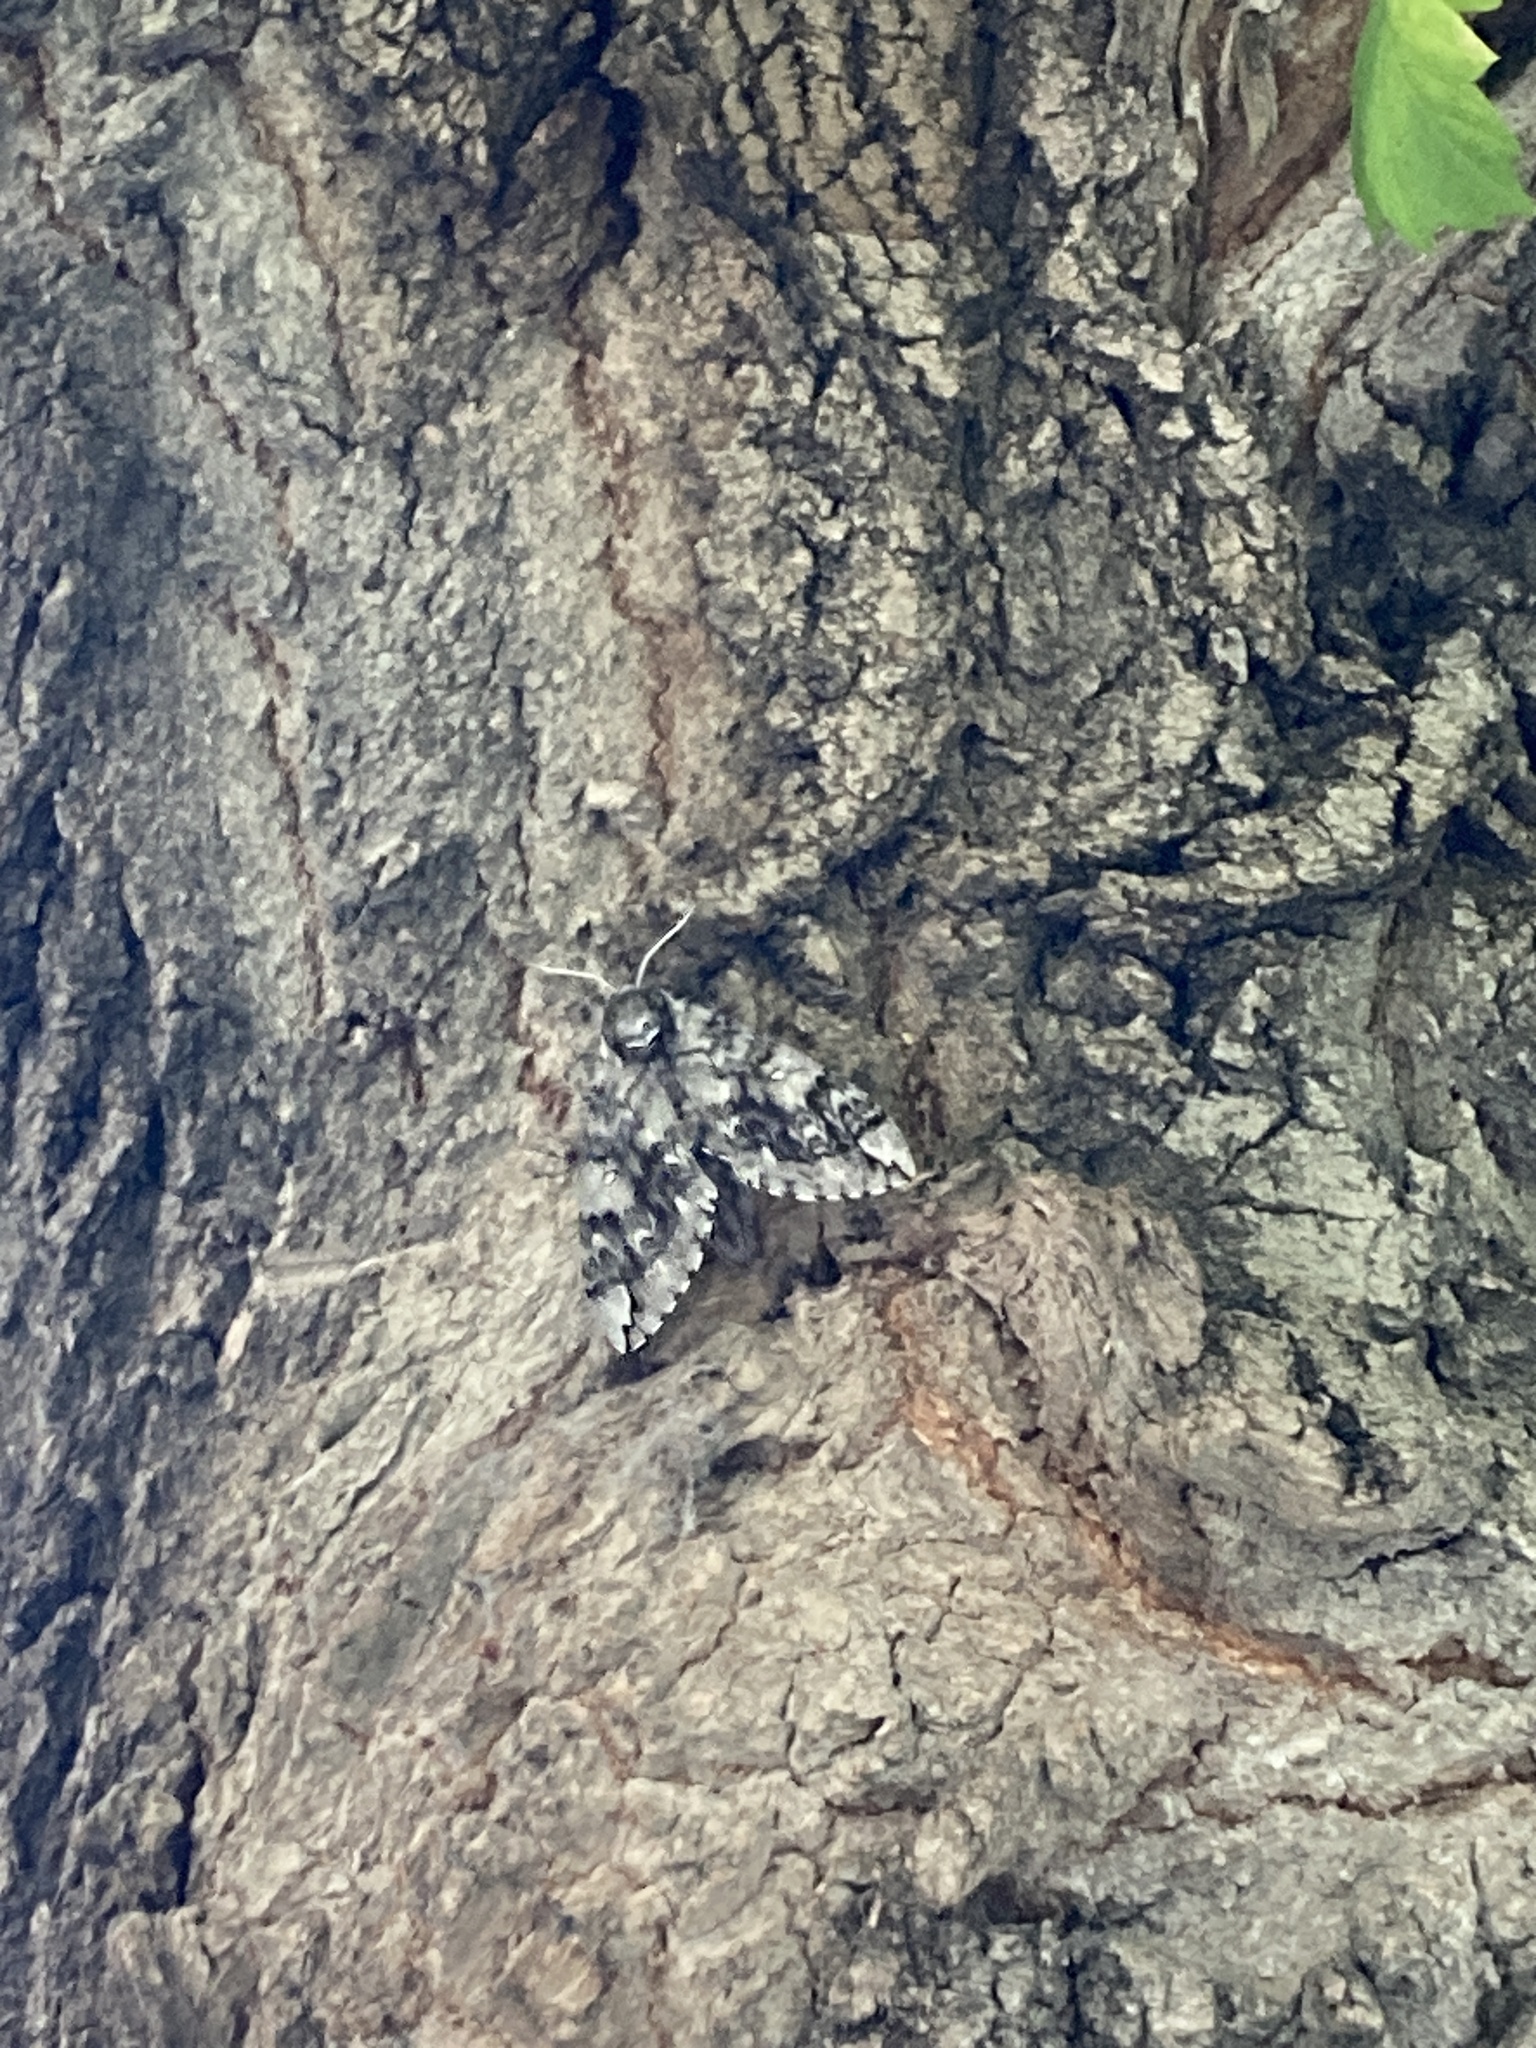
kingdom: Animalia
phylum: Arthropoda
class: Insecta
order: Lepidoptera
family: Sphingidae
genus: Ceratomia
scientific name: Ceratomia undulosa
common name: Waved sphinx
